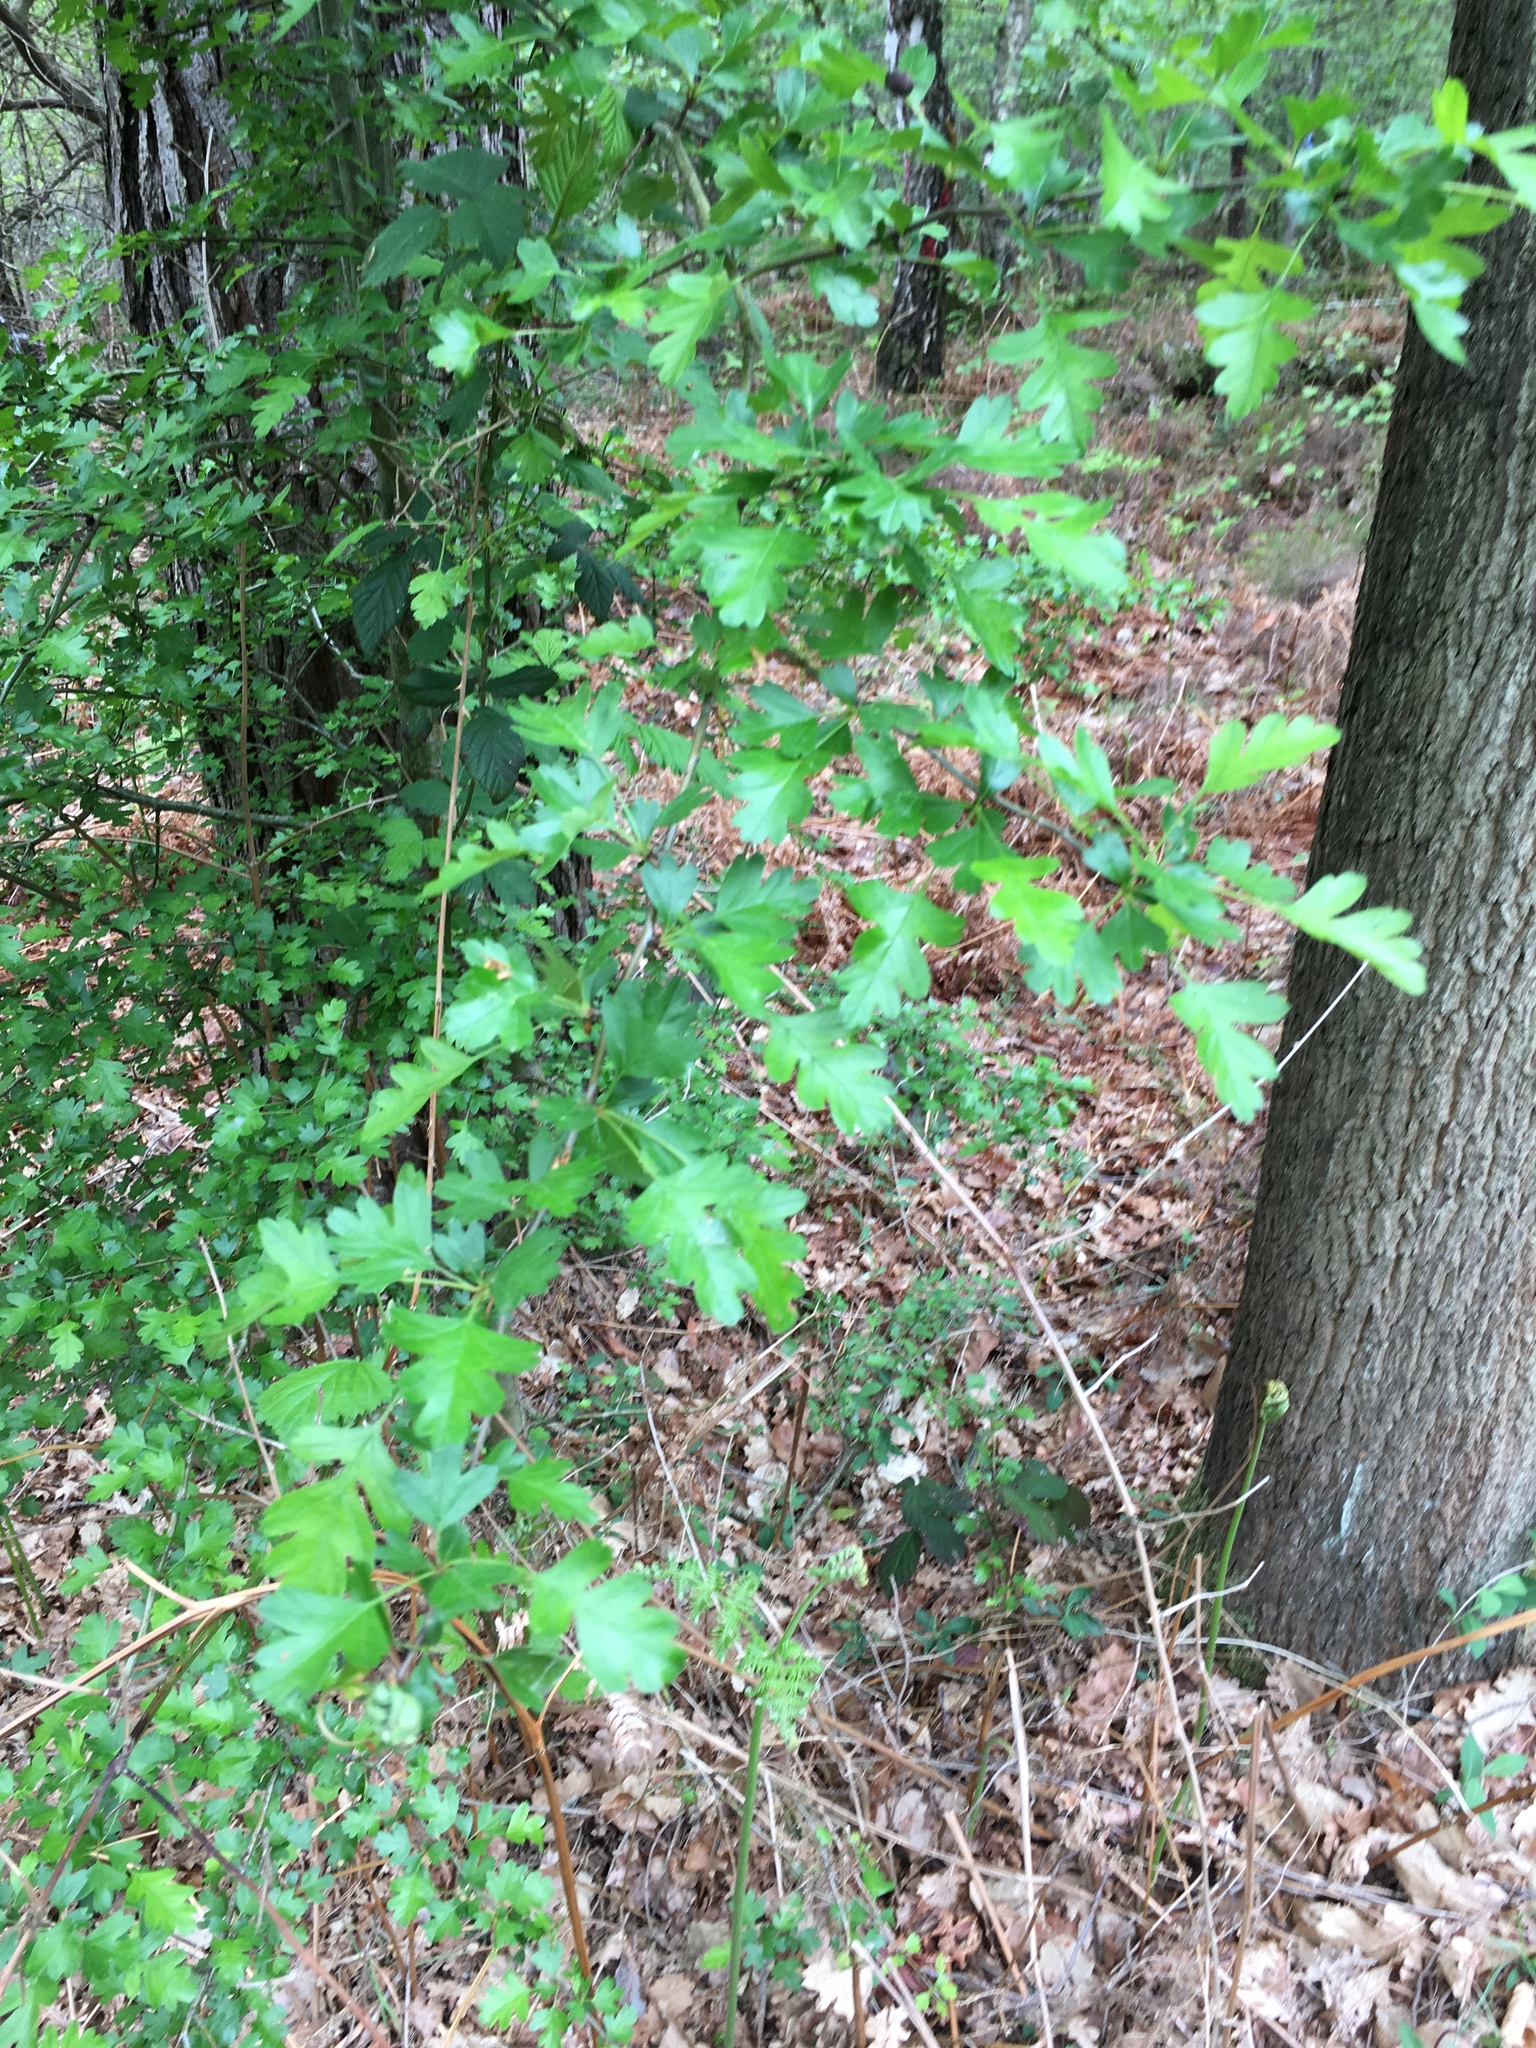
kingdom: Plantae
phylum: Tracheophyta
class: Magnoliopsida
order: Rosales
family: Rosaceae
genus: Crataegus
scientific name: Crataegus monogyna
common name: Hawthorn
